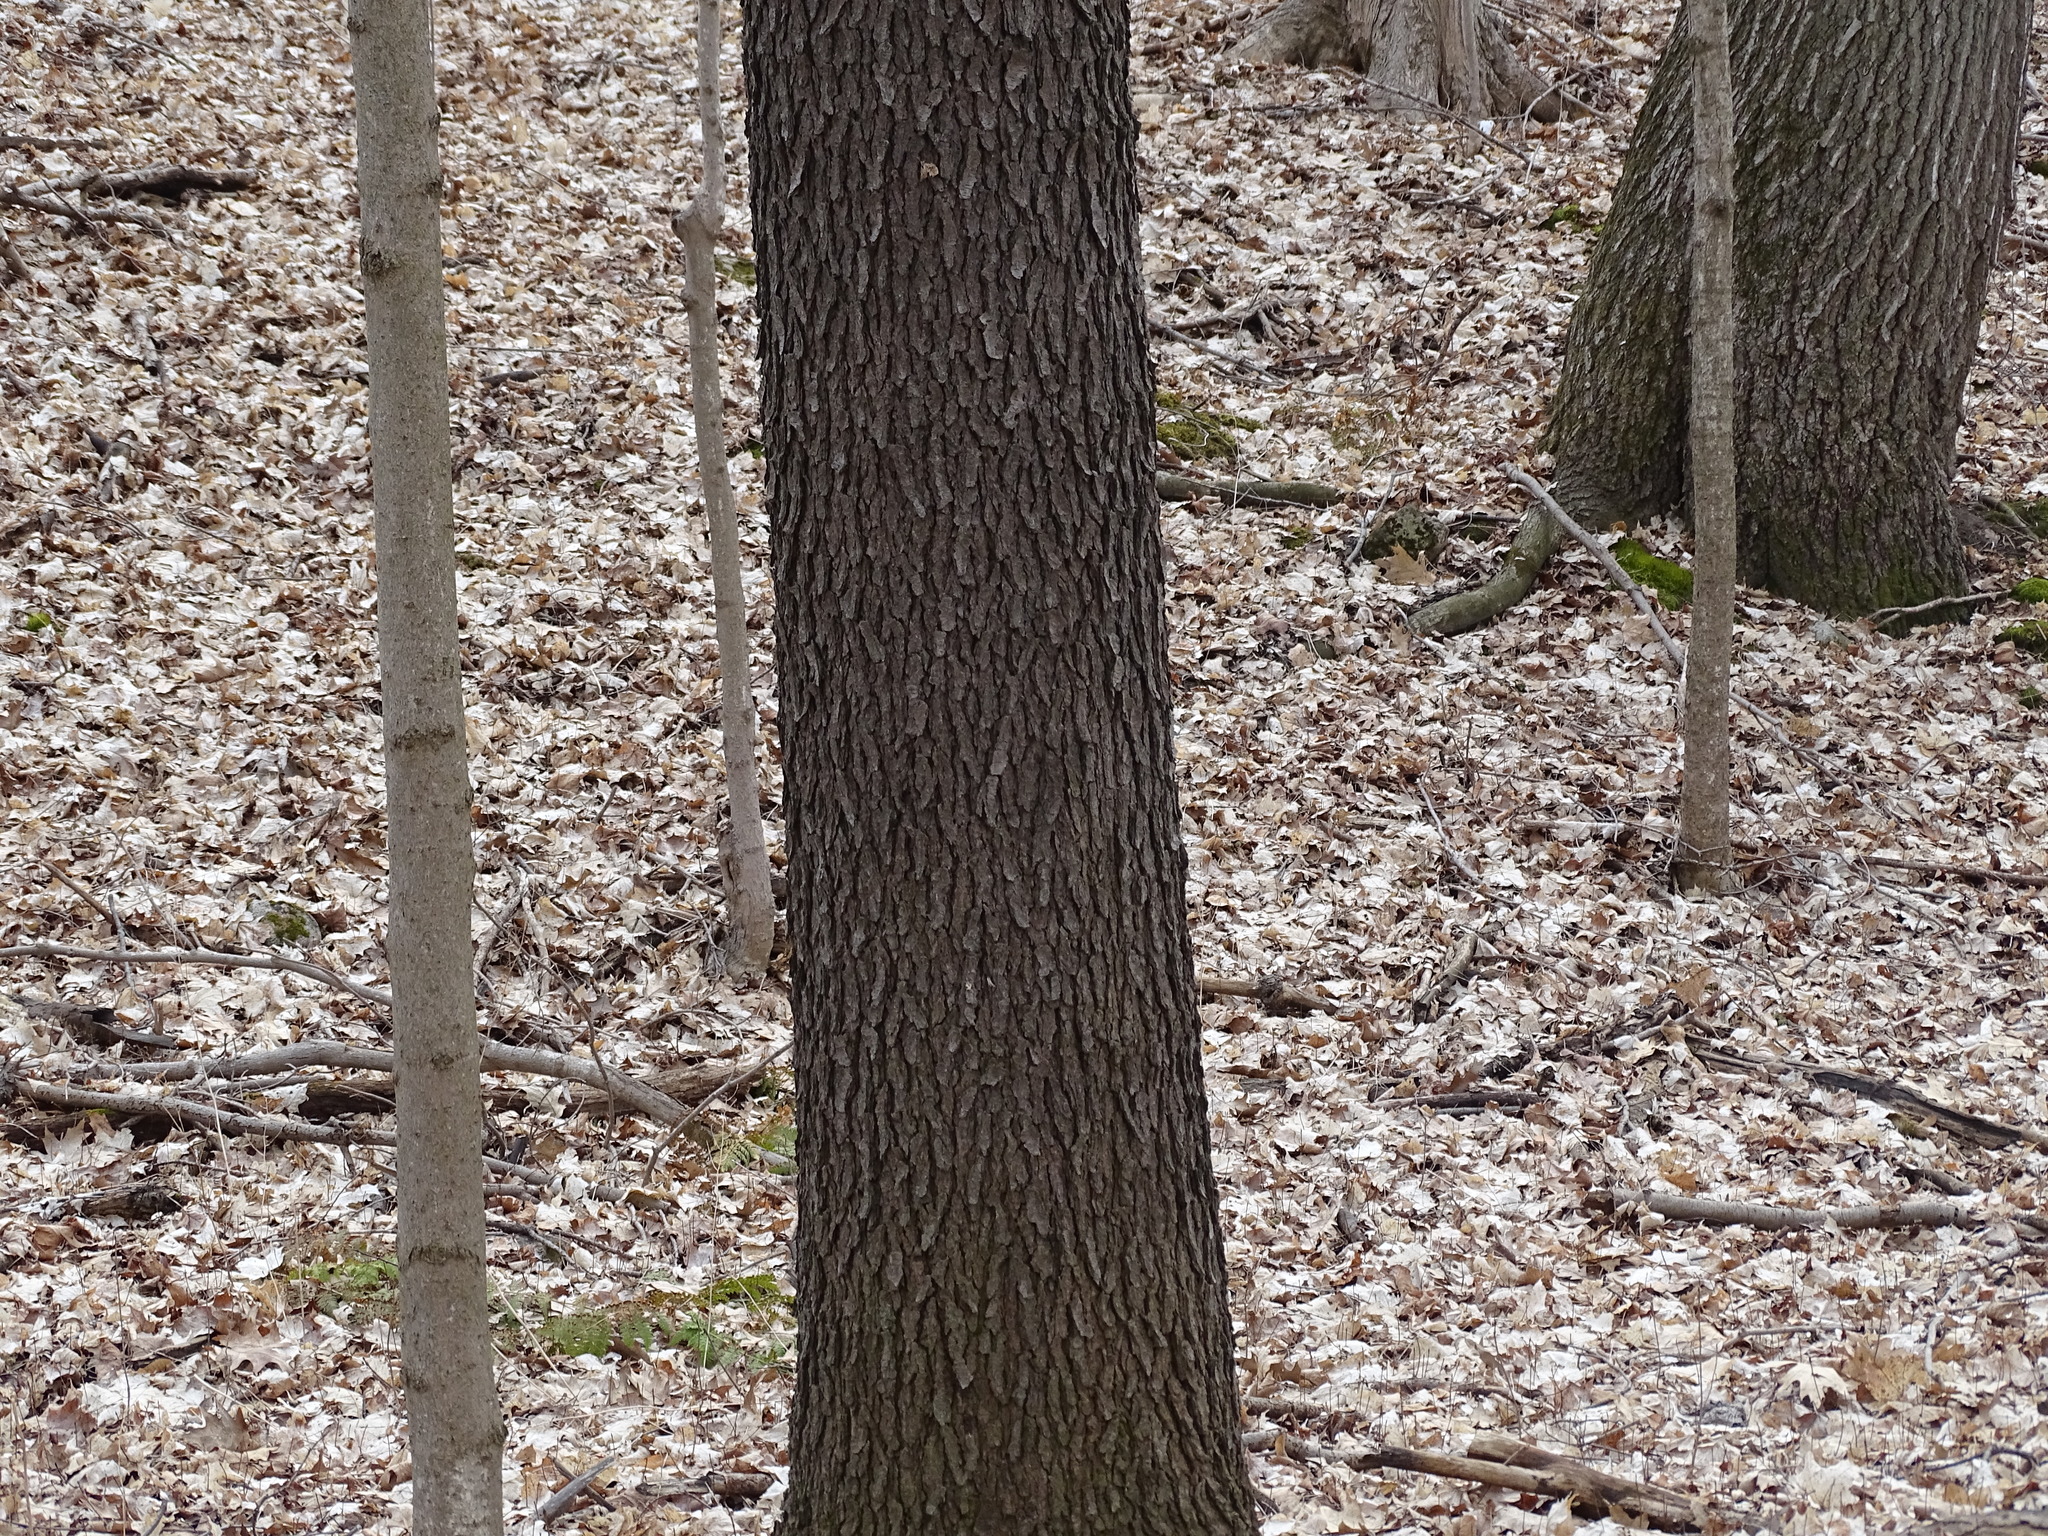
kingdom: Plantae
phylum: Tracheophyta
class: Magnoliopsida
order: Rosales
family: Rosaceae
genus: Prunus
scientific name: Prunus serotina
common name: Black cherry
